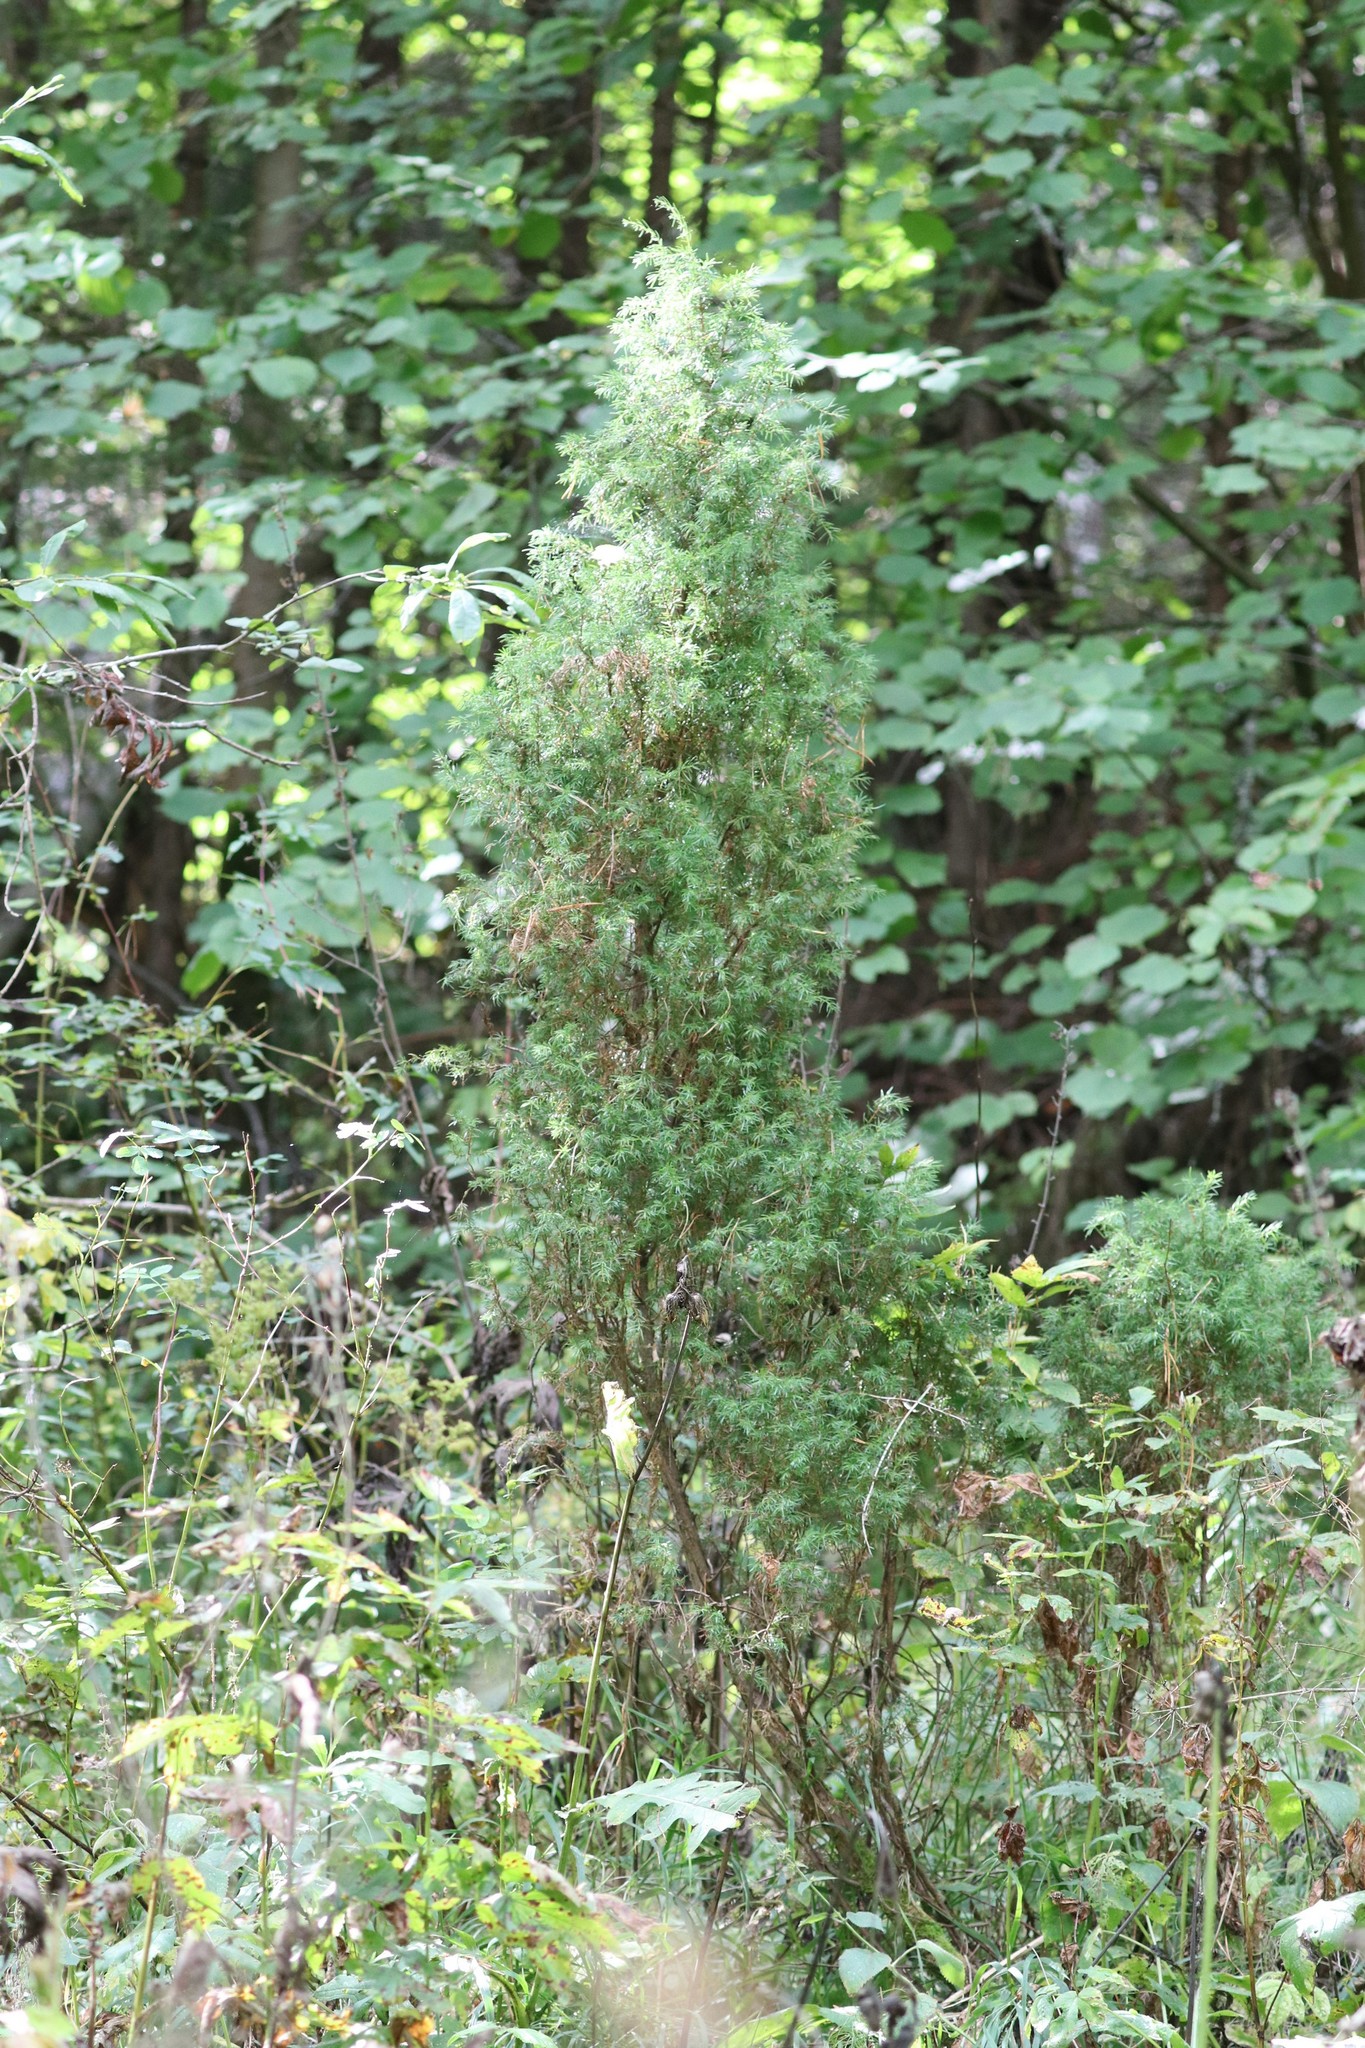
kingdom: Plantae
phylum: Tracheophyta
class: Pinopsida
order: Pinales
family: Cupressaceae
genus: Juniperus
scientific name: Juniperus communis
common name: Common juniper
